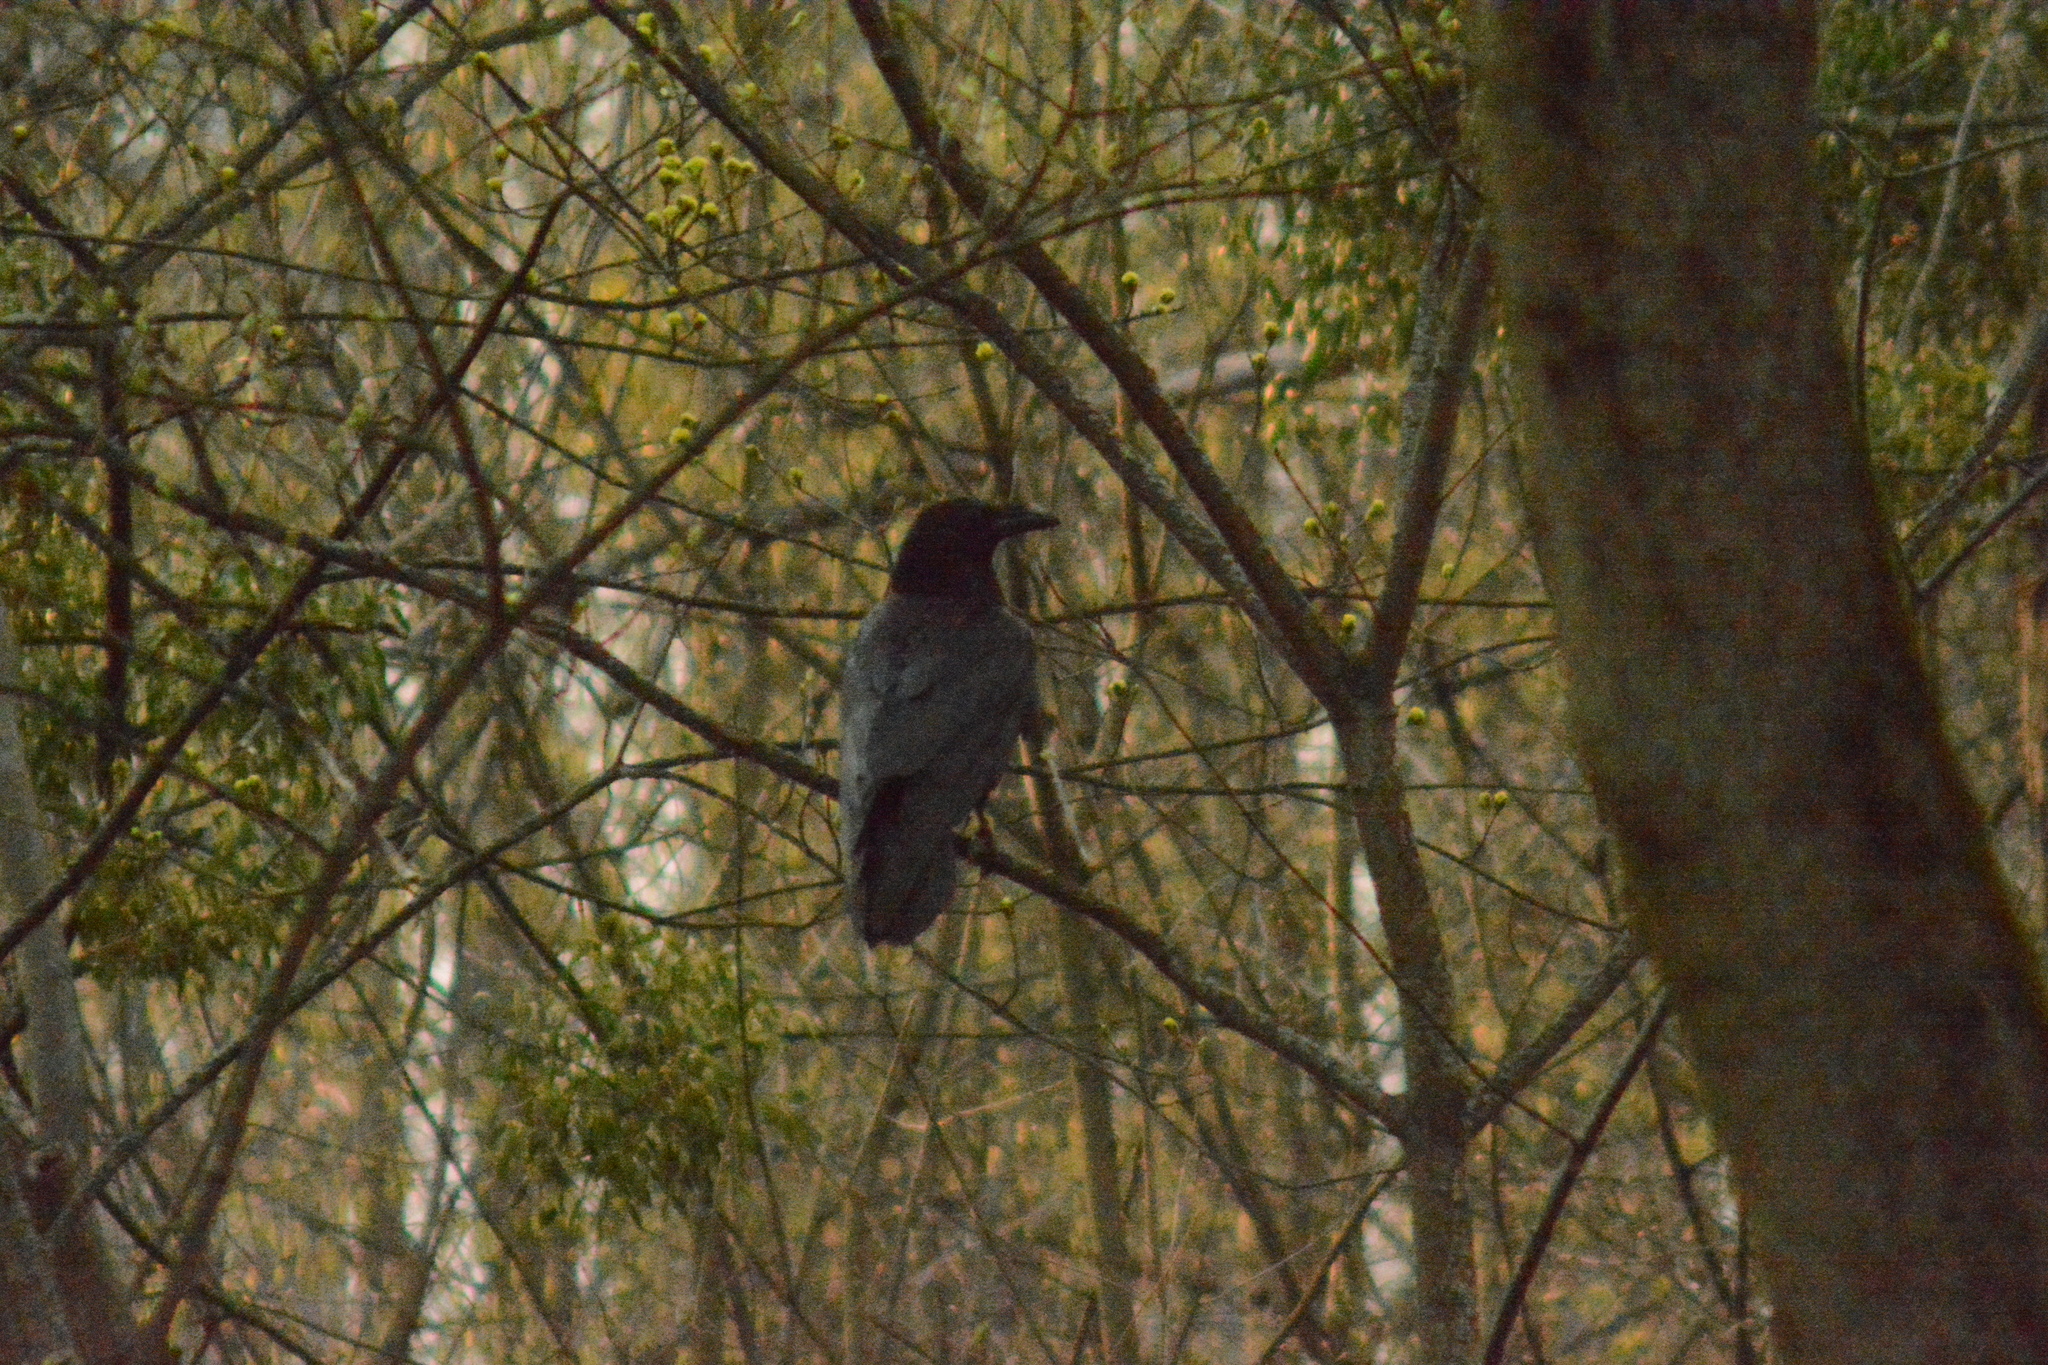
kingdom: Animalia
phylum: Chordata
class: Aves
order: Passeriformes
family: Corvidae
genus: Corvus
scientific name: Corvus corax
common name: Common raven
